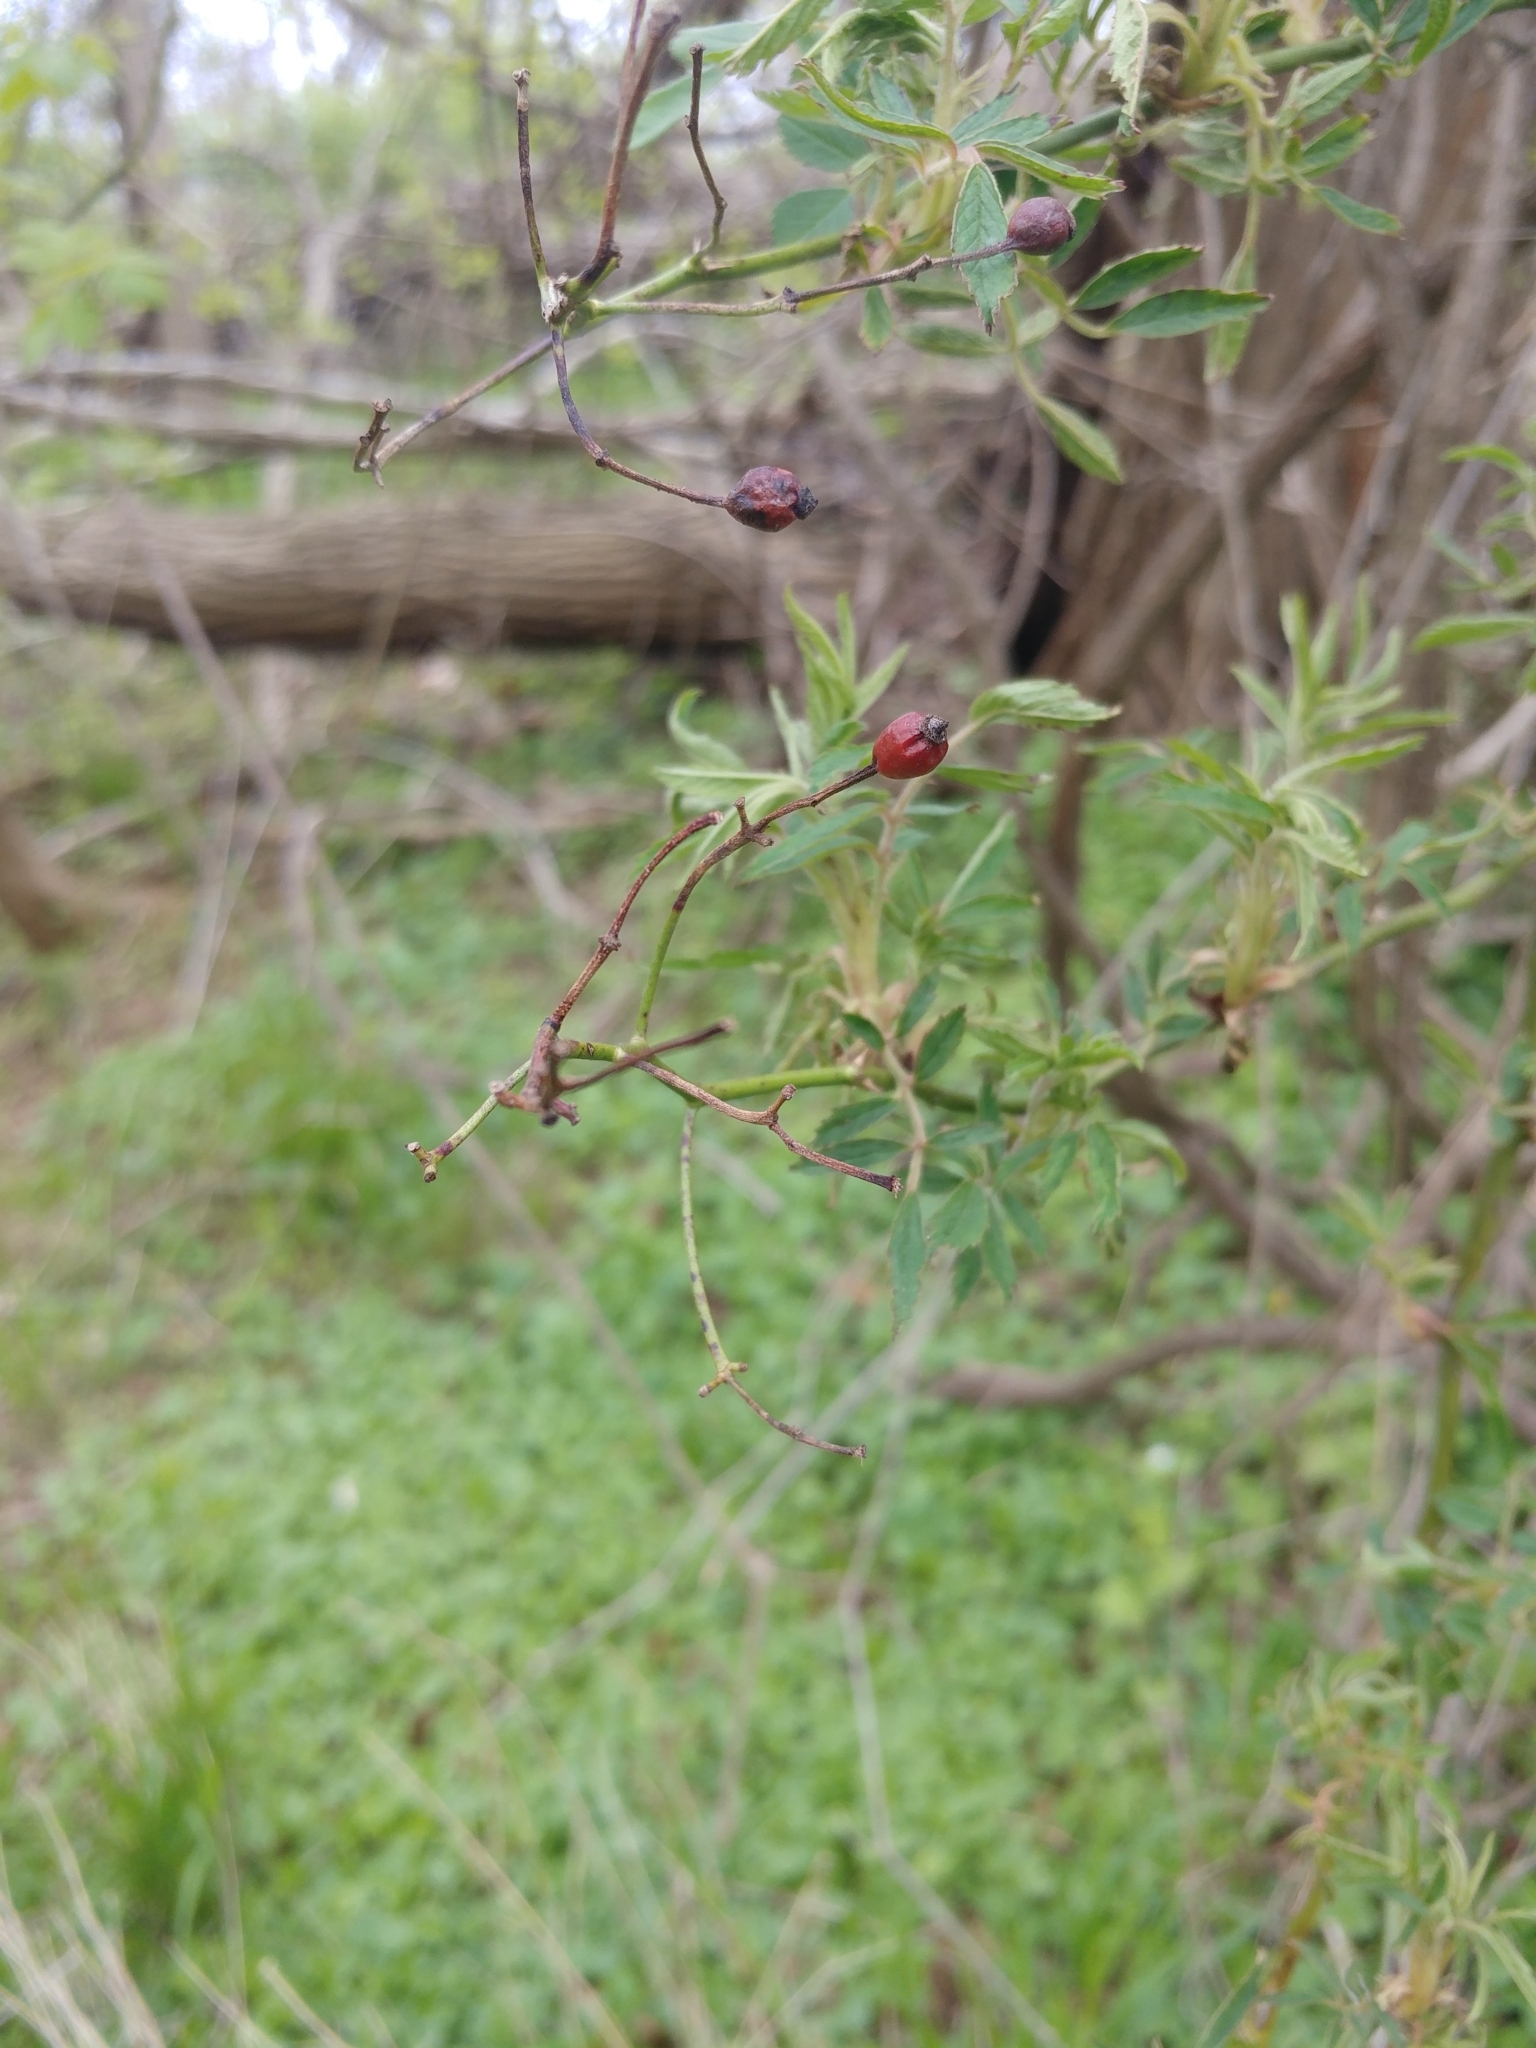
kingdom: Plantae
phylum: Tracheophyta
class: Magnoliopsida
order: Rosales
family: Rosaceae
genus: Rosa
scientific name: Rosa multiflora
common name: Multiflora rose
